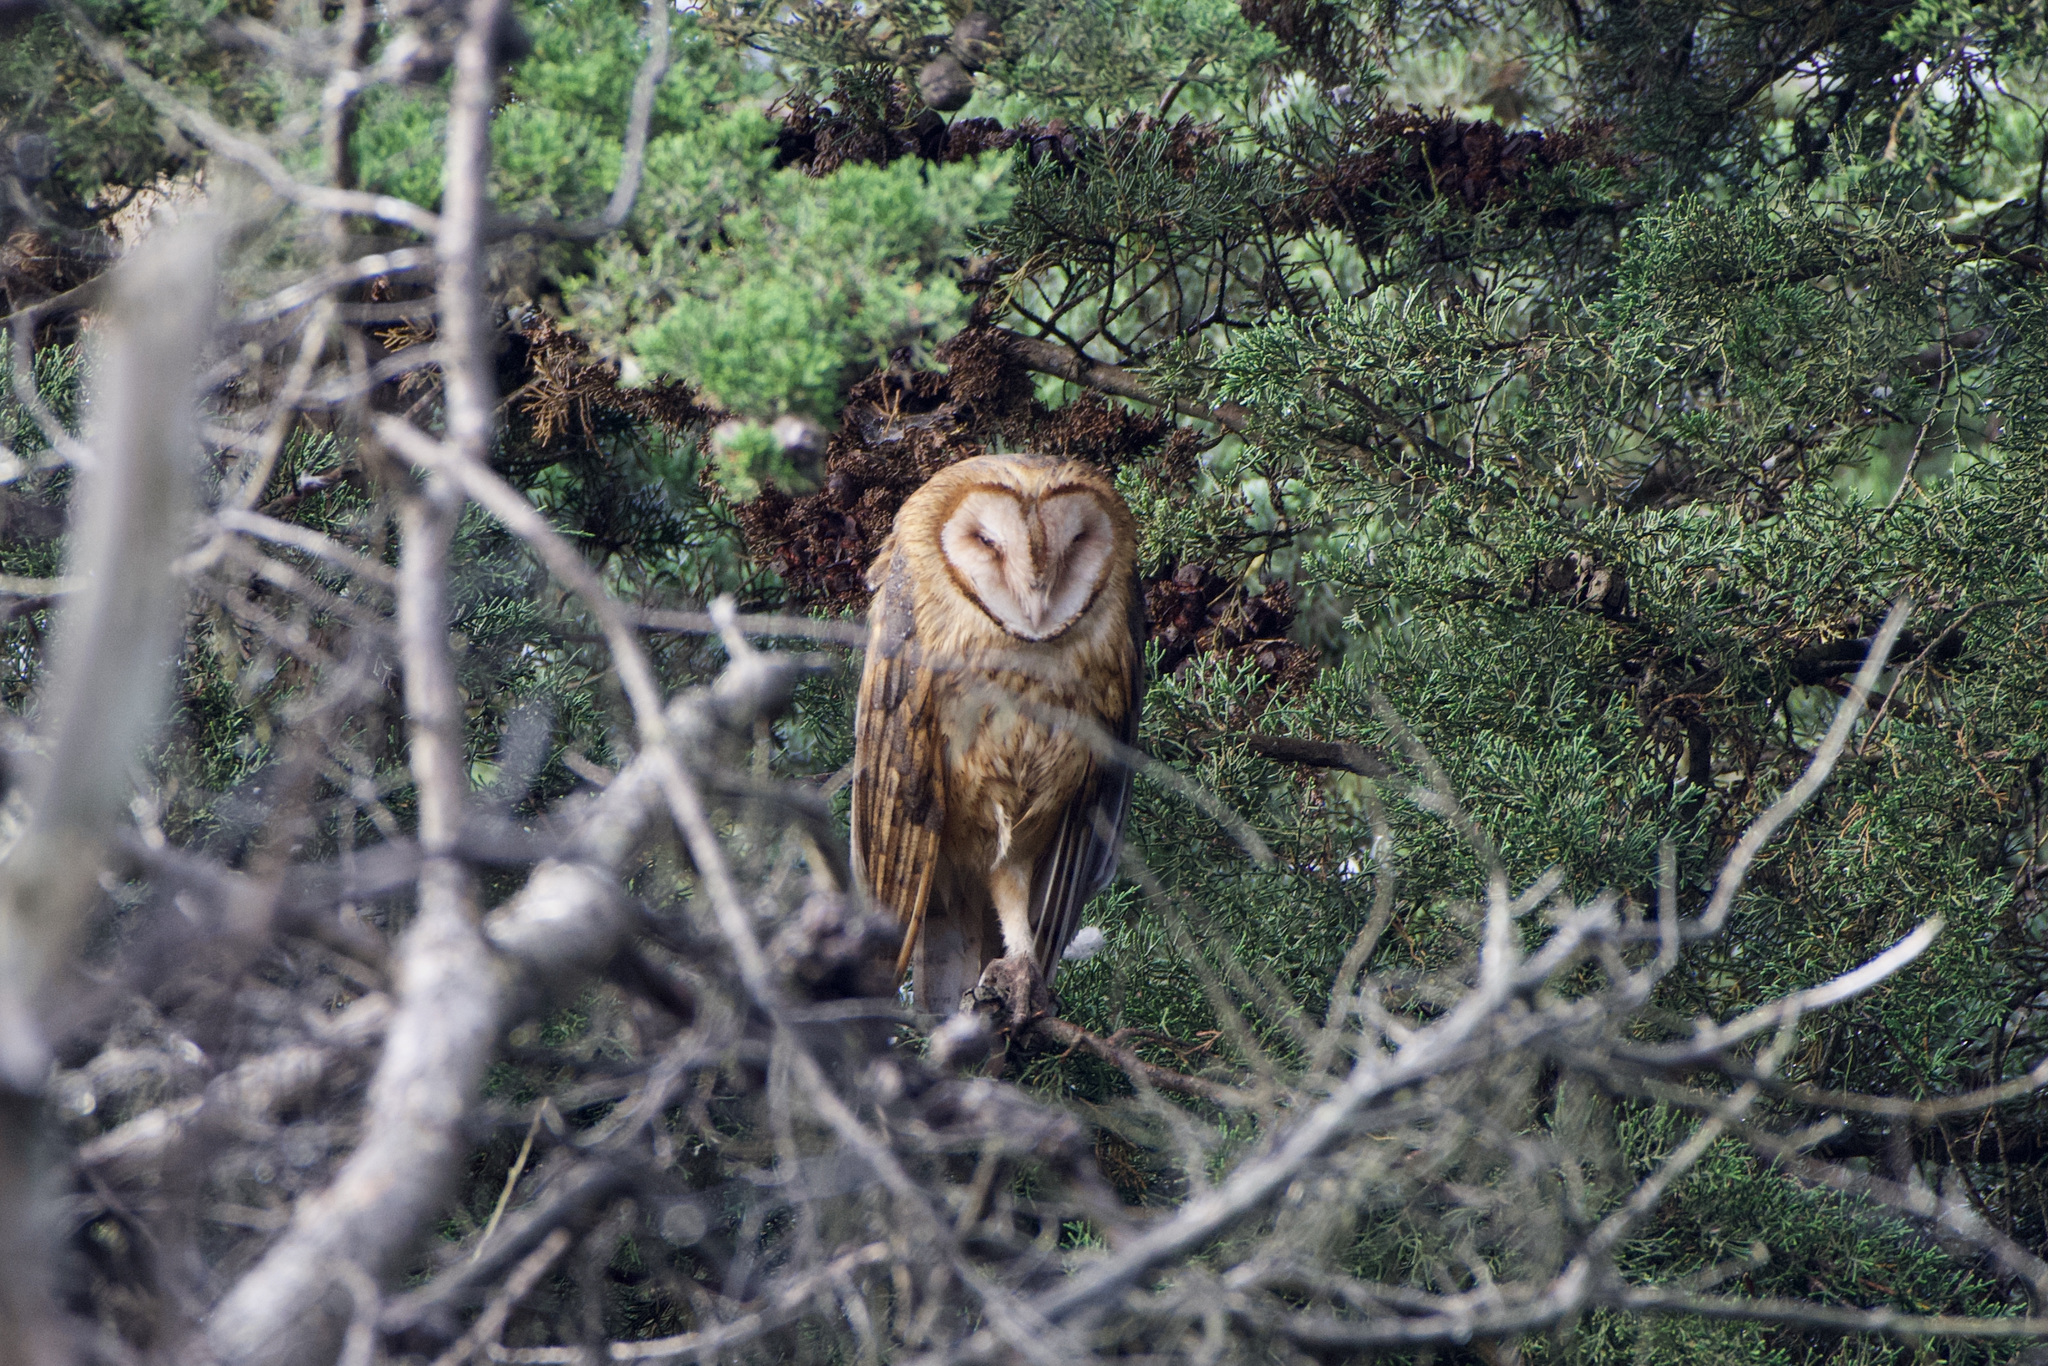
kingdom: Animalia
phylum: Chordata
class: Aves
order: Strigiformes
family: Tytonidae
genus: Tyto
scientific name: Tyto alba
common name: Barn owl
